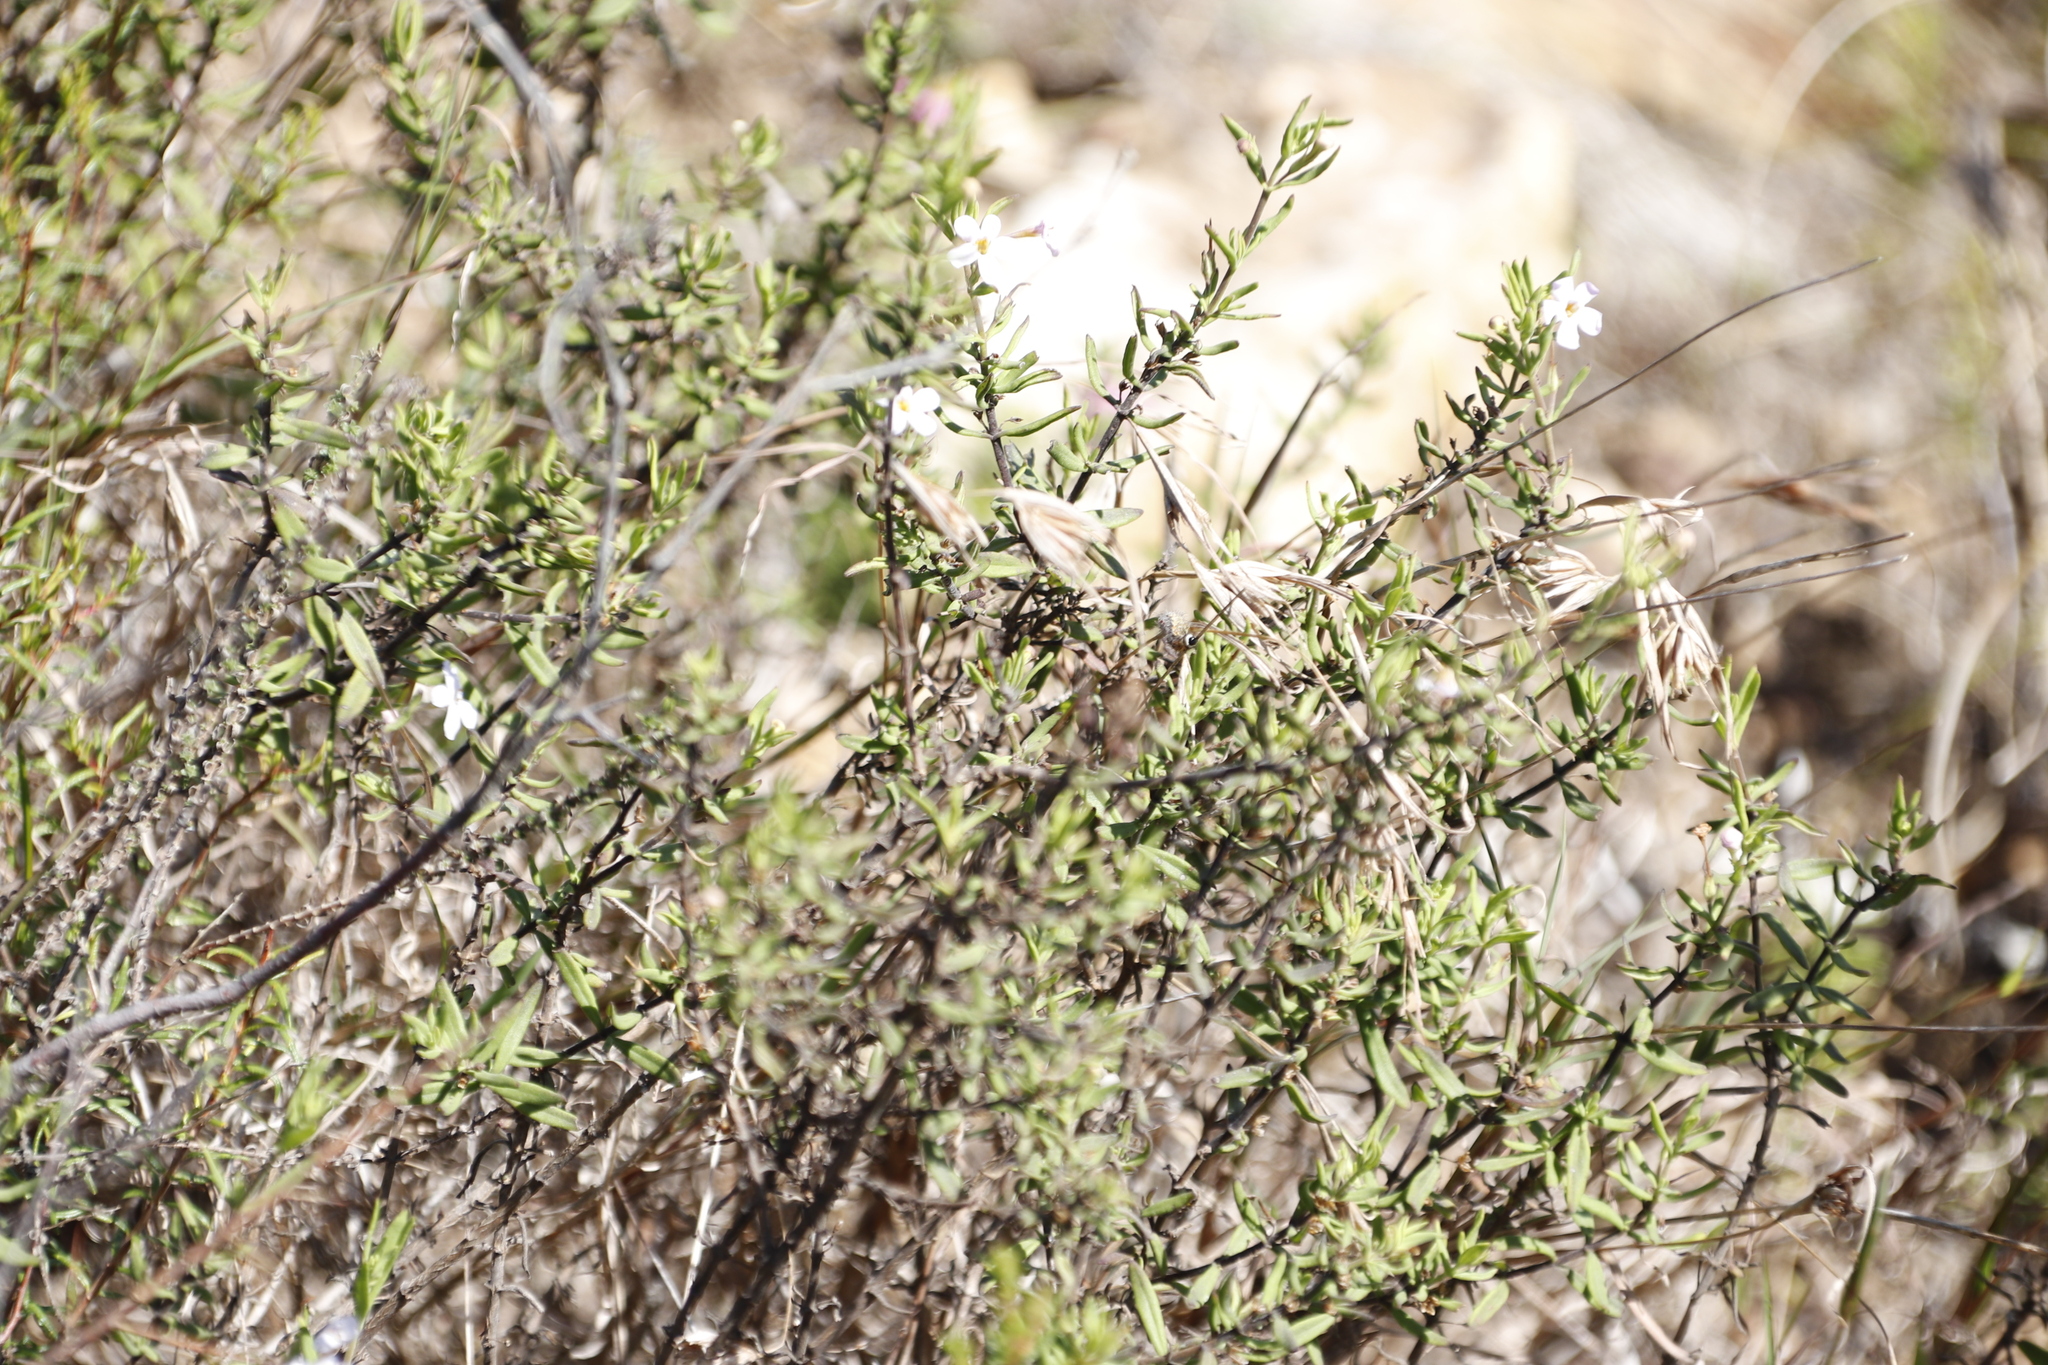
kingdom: Plantae
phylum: Tracheophyta
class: Liliopsida
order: Poales
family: Poaceae
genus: Themeda
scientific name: Themeda triandra
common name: Kangaroo grass
